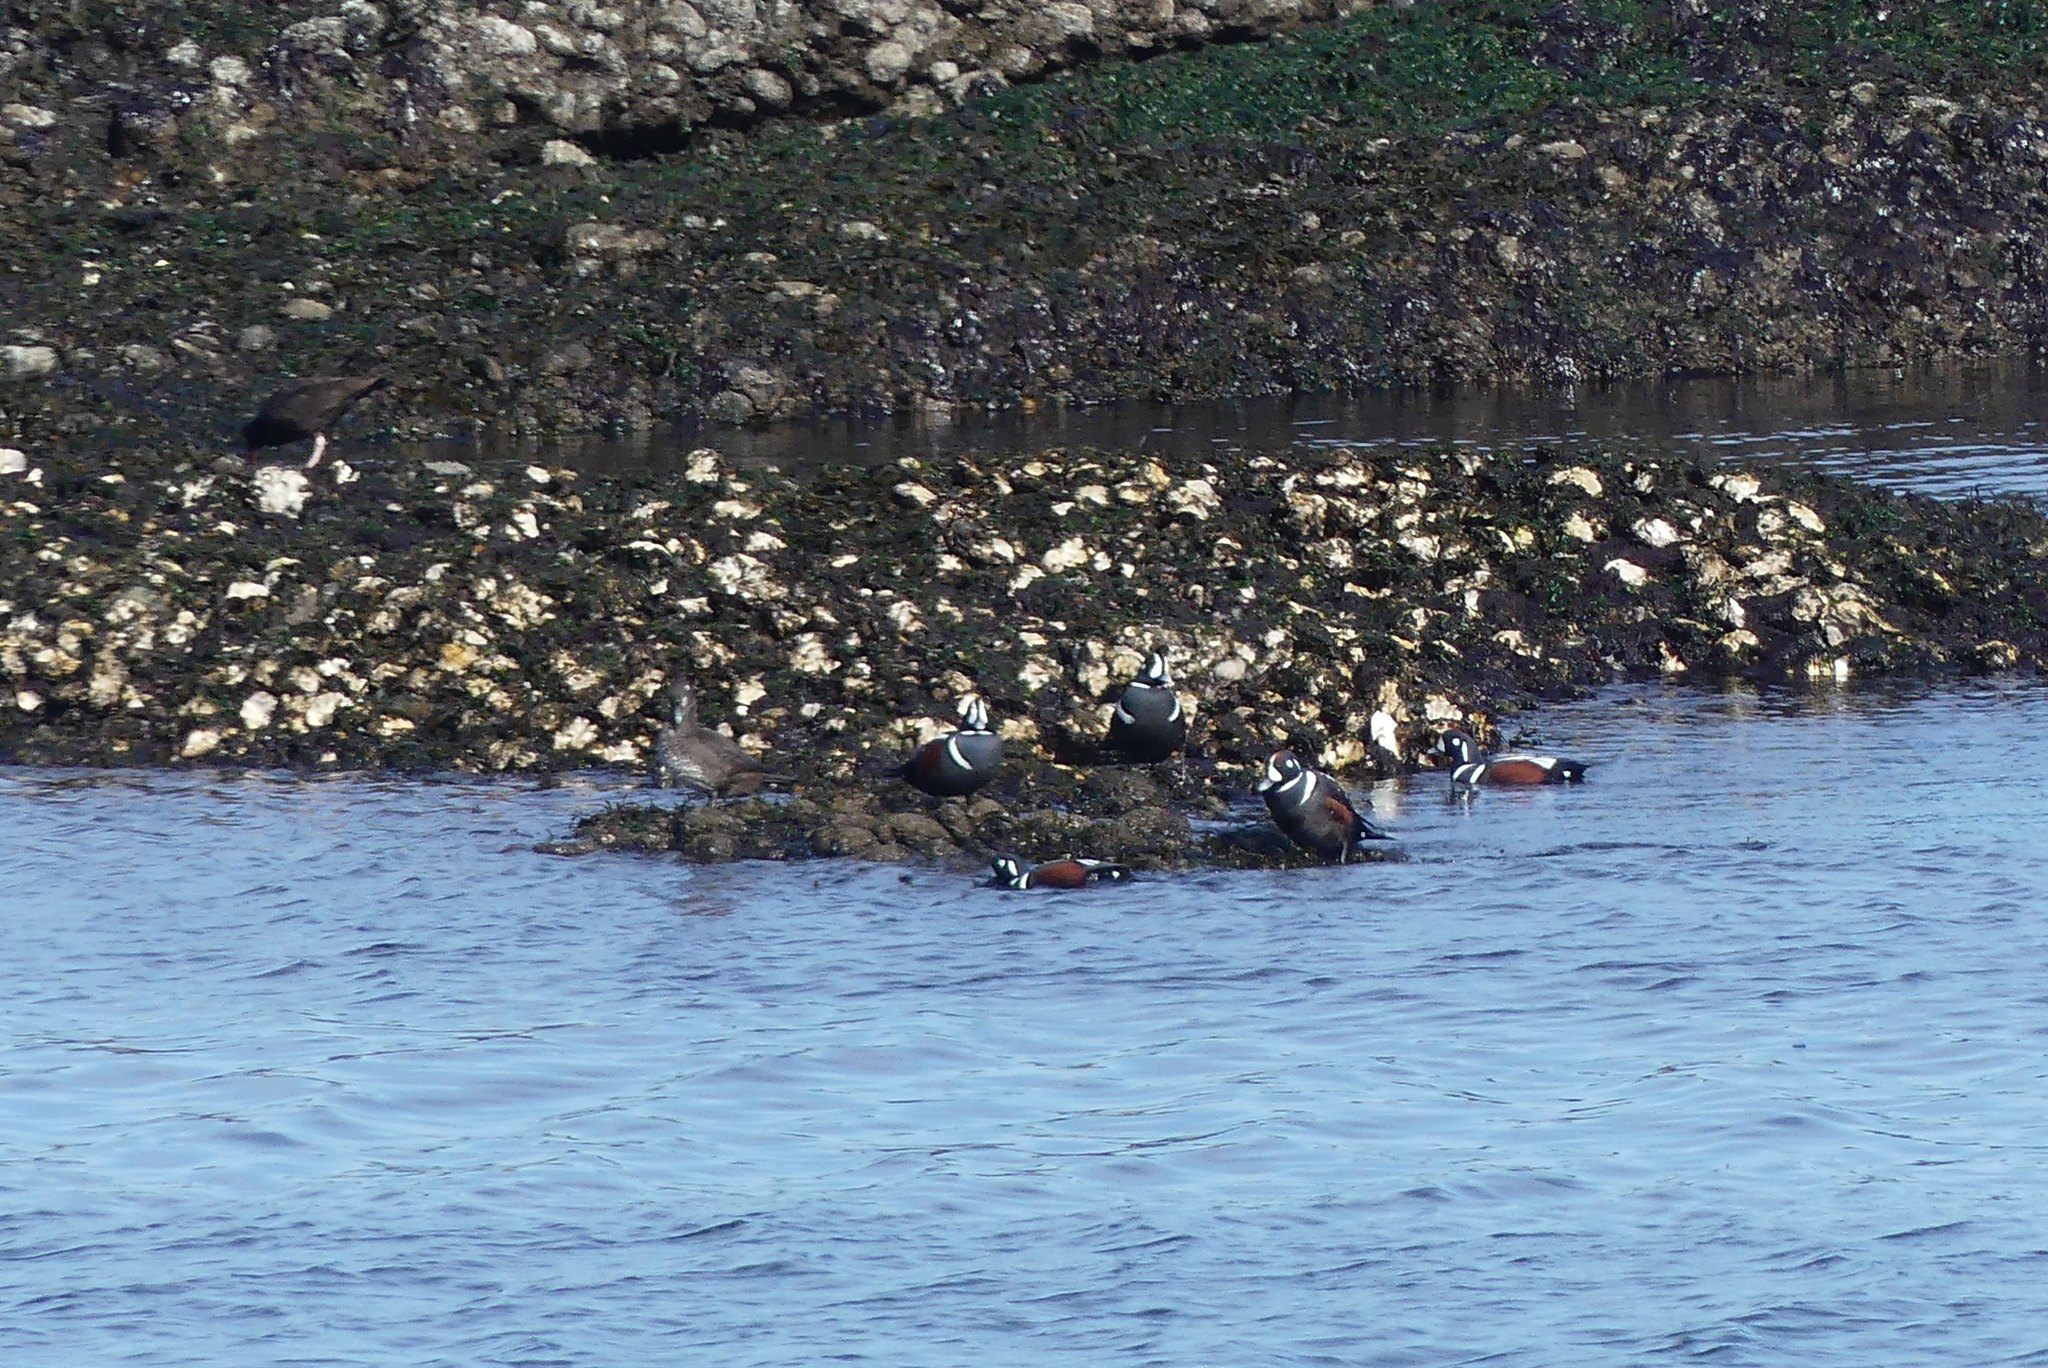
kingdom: Animalia
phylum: Chordata
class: Aves
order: Anseriformes
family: Anatidae
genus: Histrionicus
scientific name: Histrionicus histrionicus
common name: Harlequin duck
